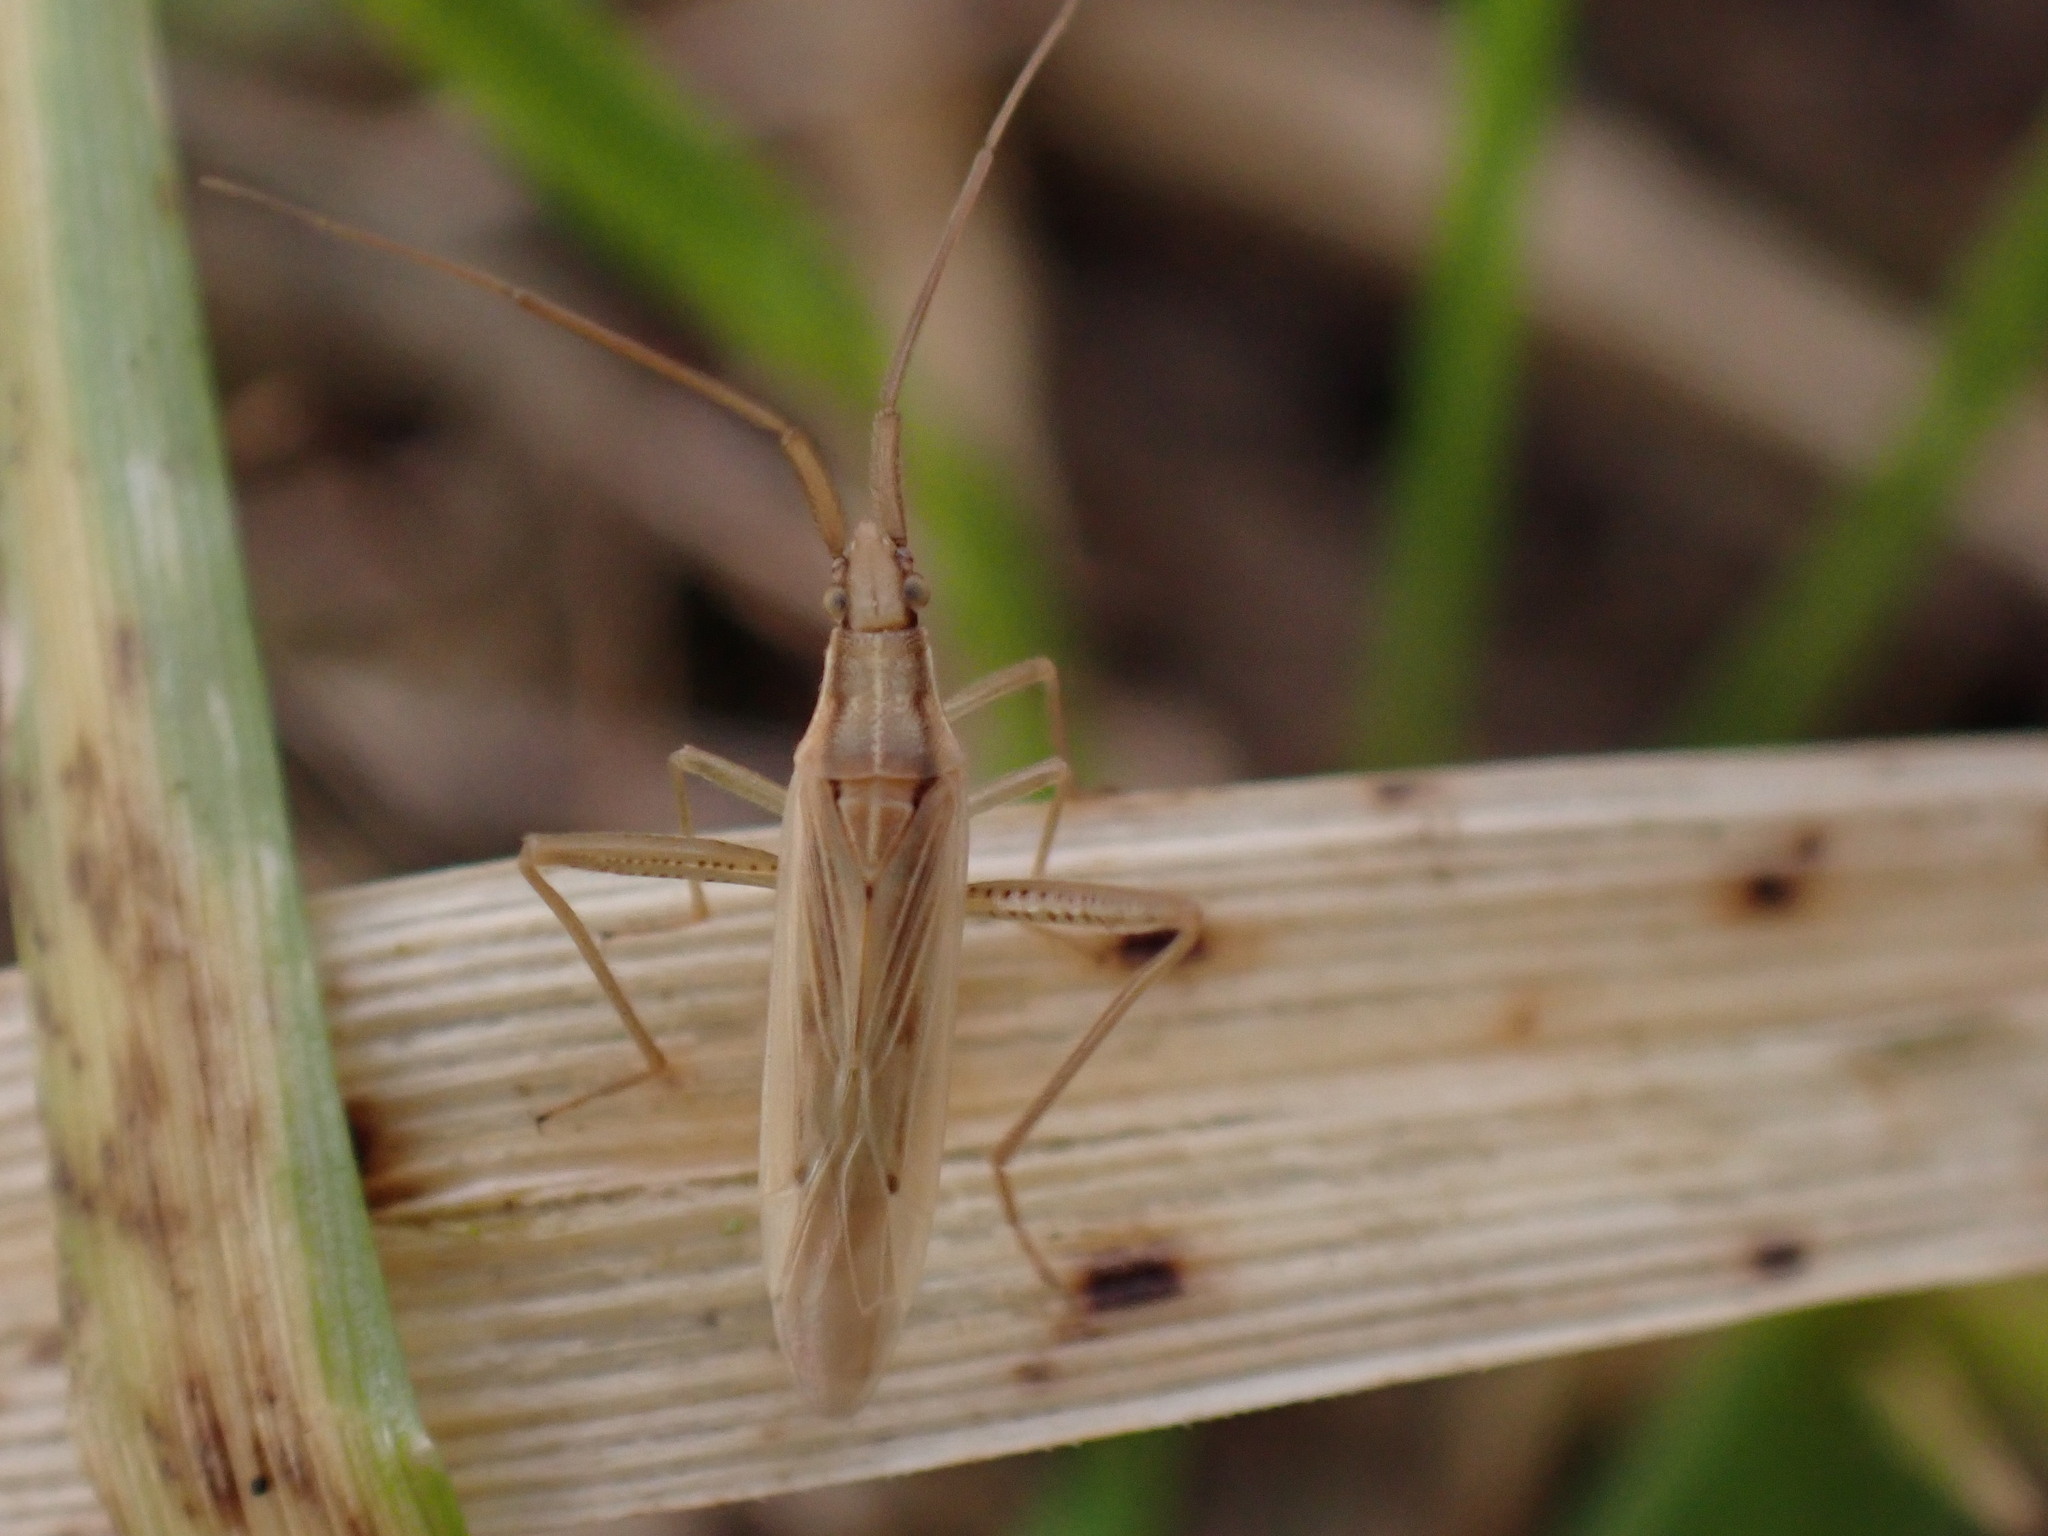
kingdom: Animalia
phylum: Arthropoda
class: Insecta
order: Hemiptera
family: Miridae
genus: Stenodema
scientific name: Stenodema laevigata
